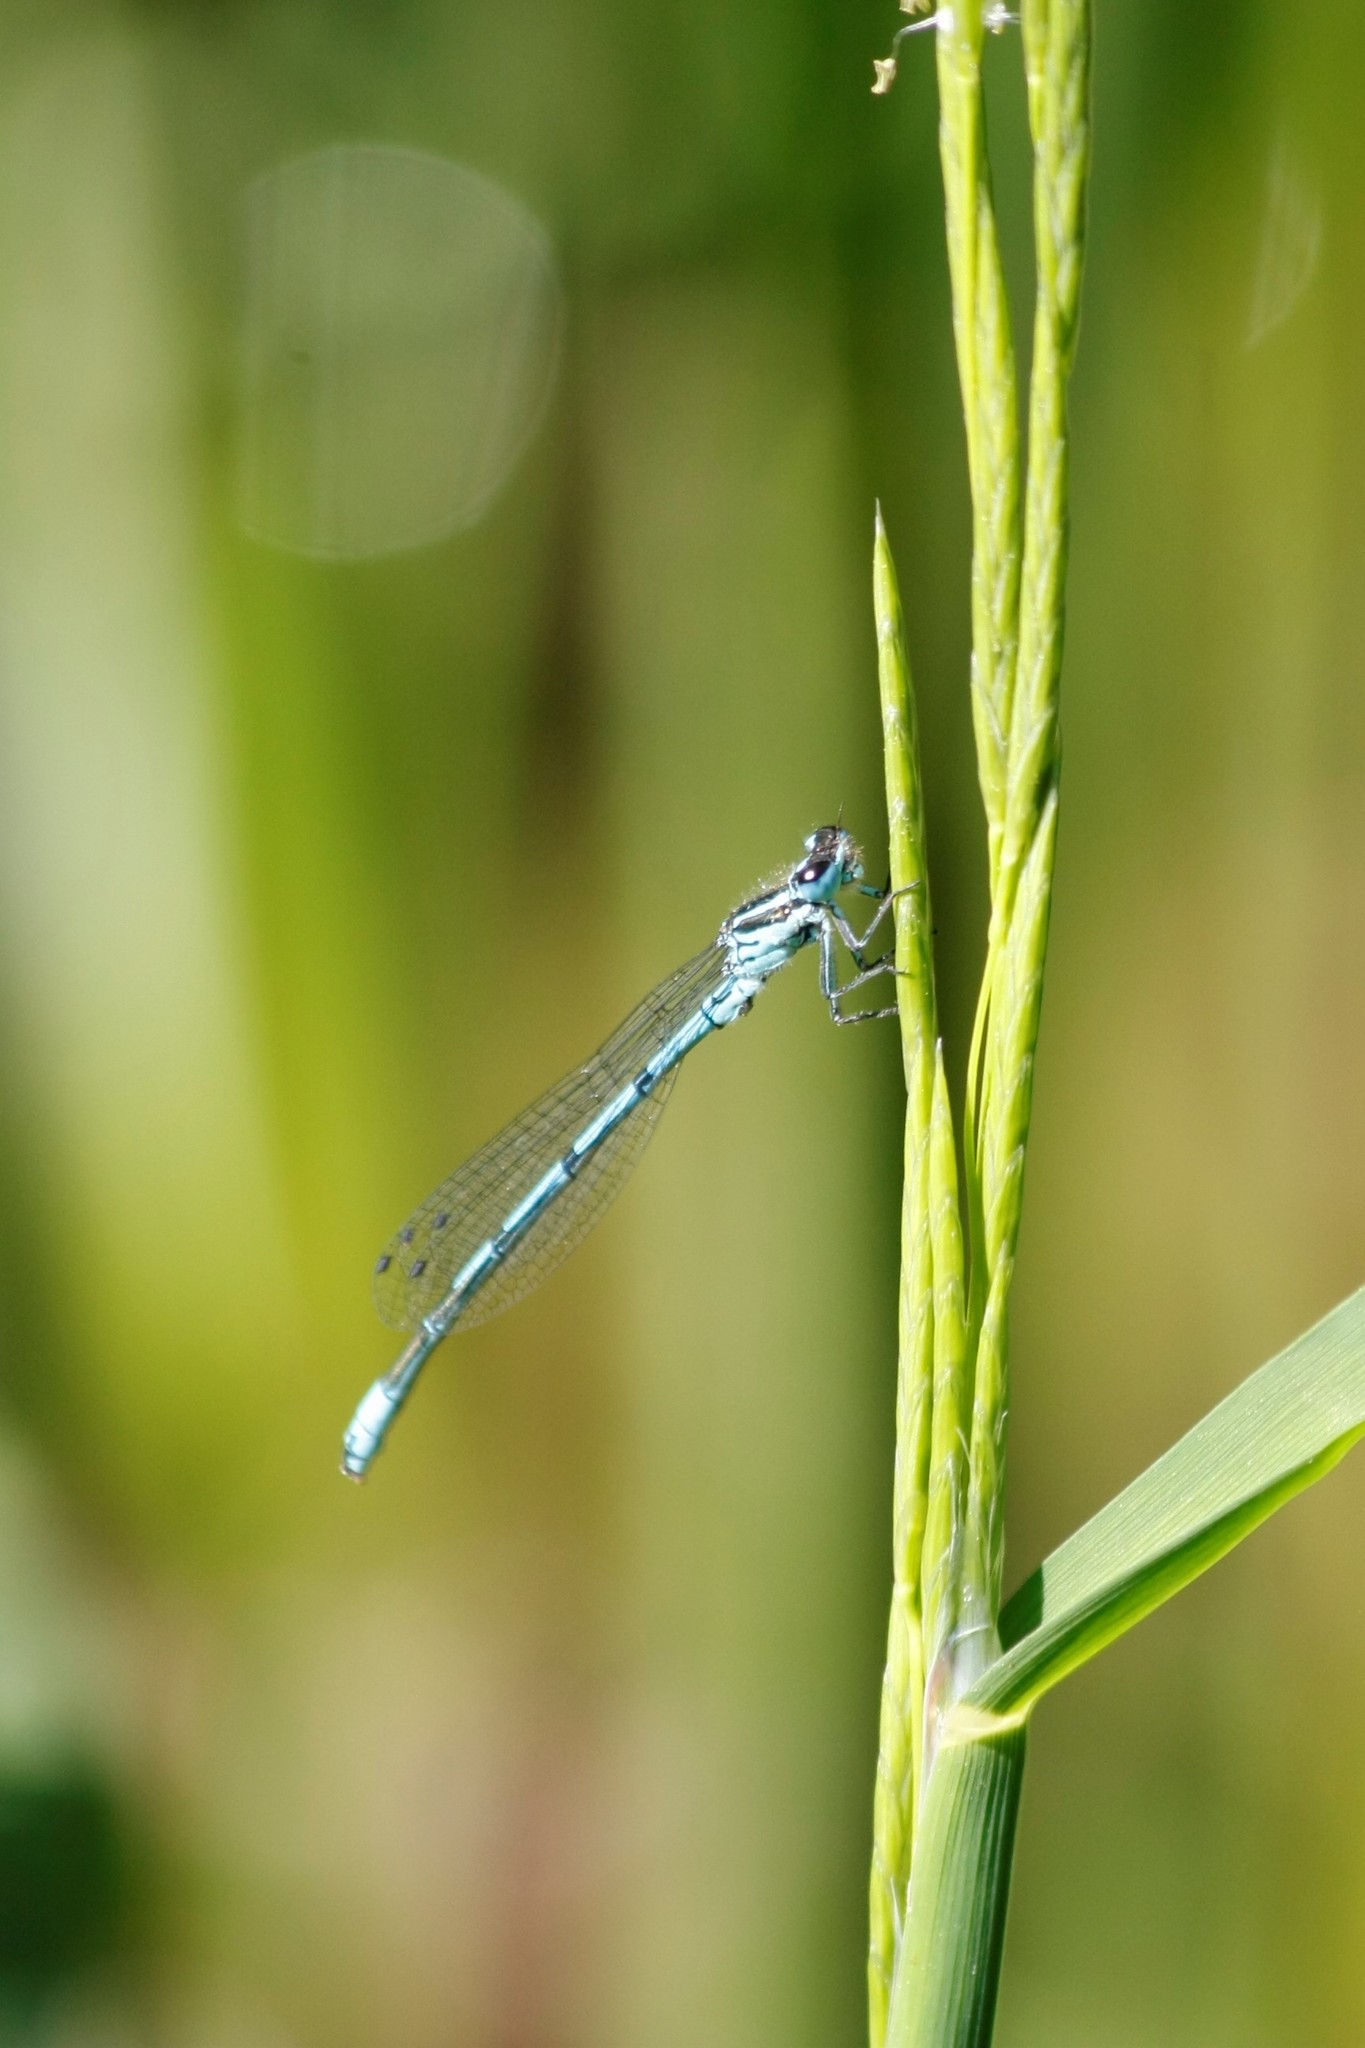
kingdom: Animalia
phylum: Arthropoda
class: Insecta
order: Odonata
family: Coenagrionidae
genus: Coenagrion
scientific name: Coenagrion puella
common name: Azure damselfly
